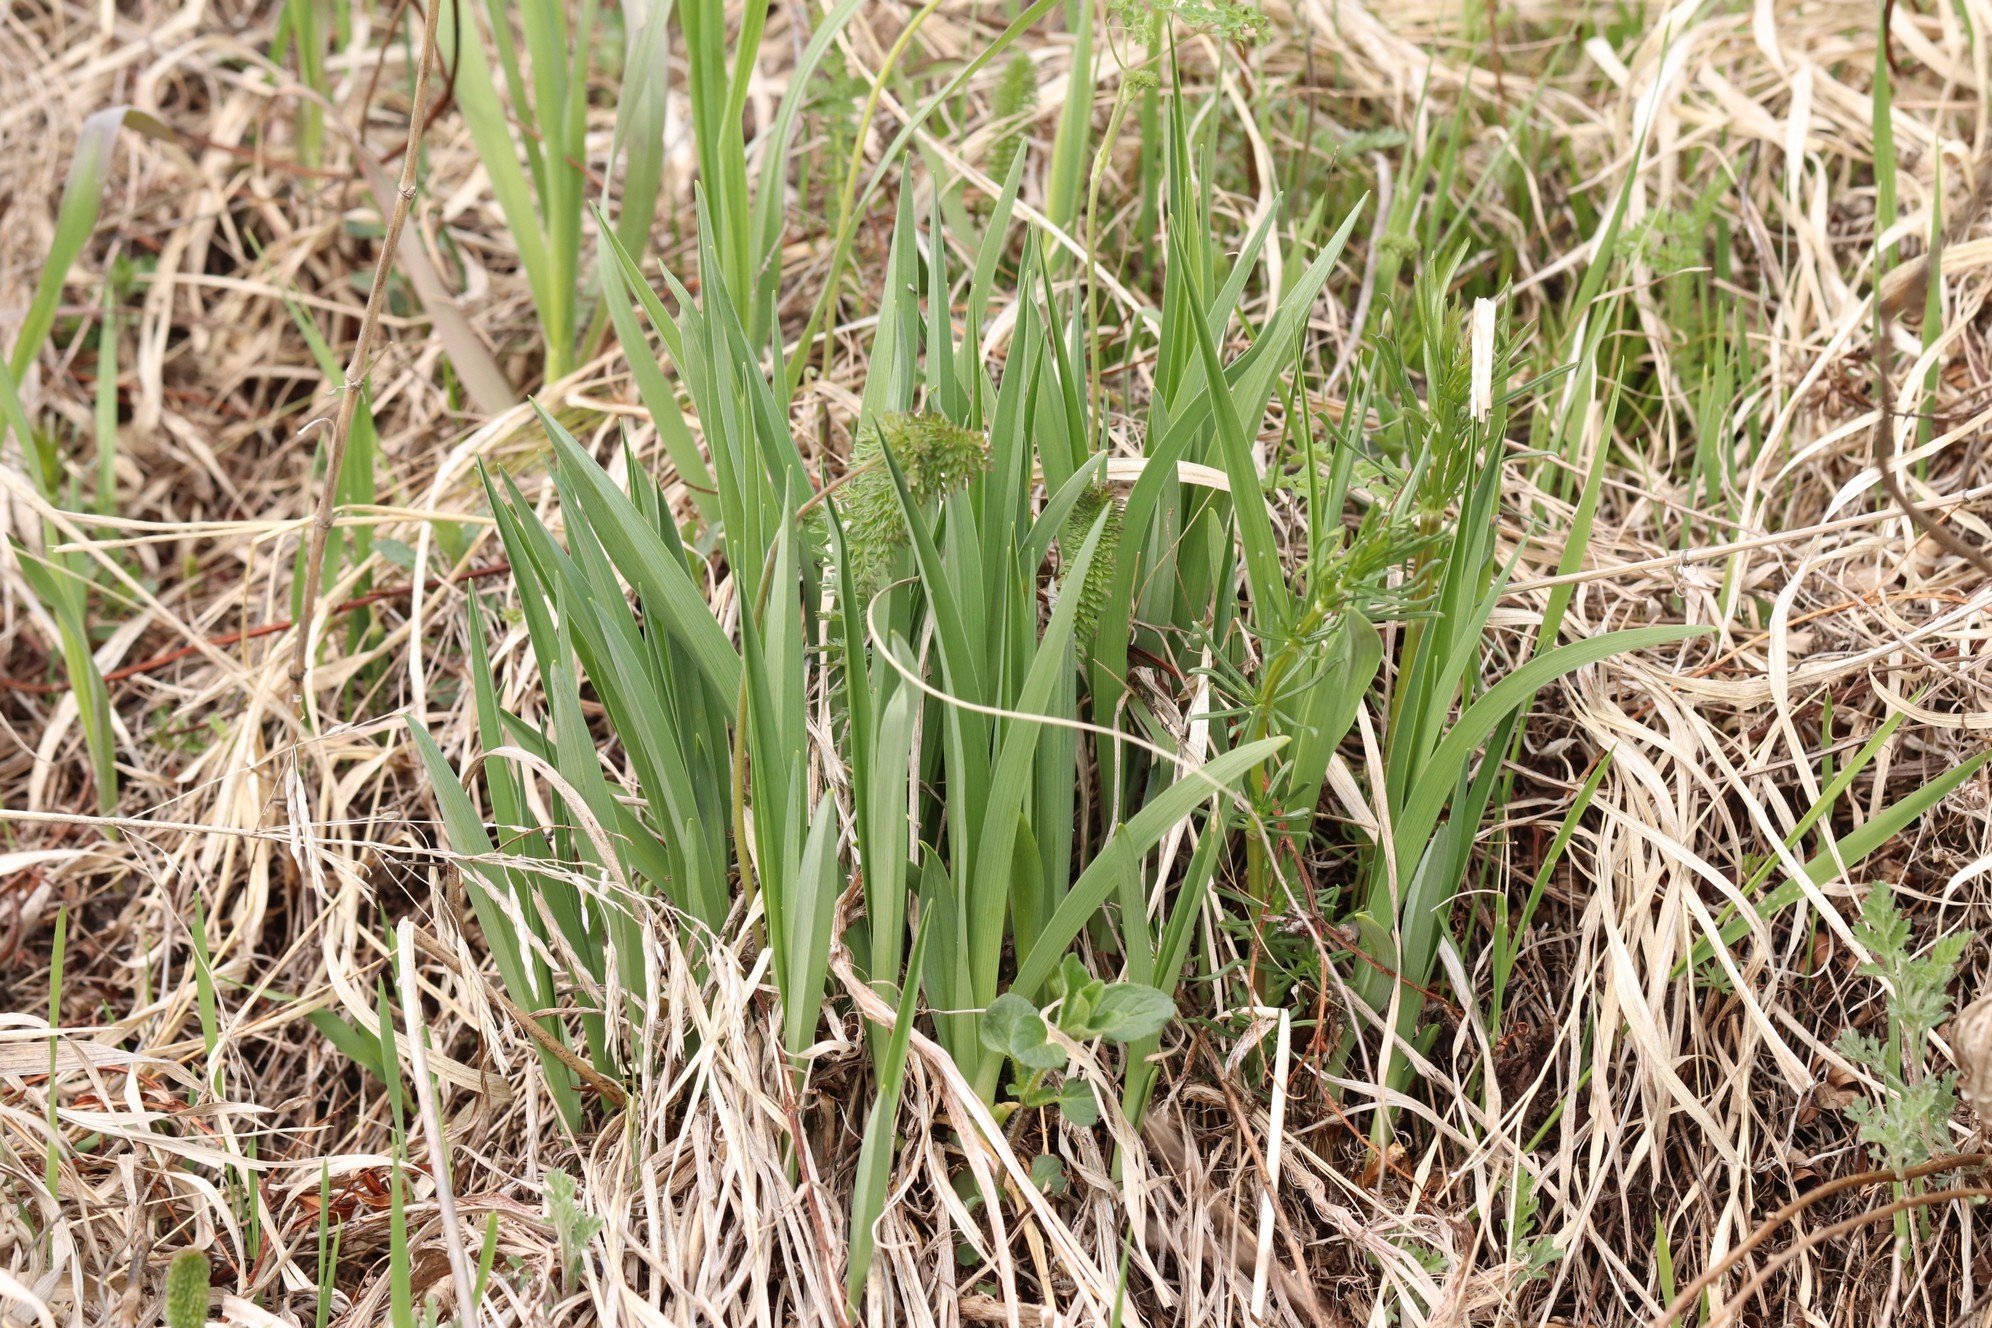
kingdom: Plantae
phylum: Tracheophyta
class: Liliopsida
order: Asparagales
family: Asphodelaceae
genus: Hemerocallis
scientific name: Hemerocallis minor
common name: Small daylily
